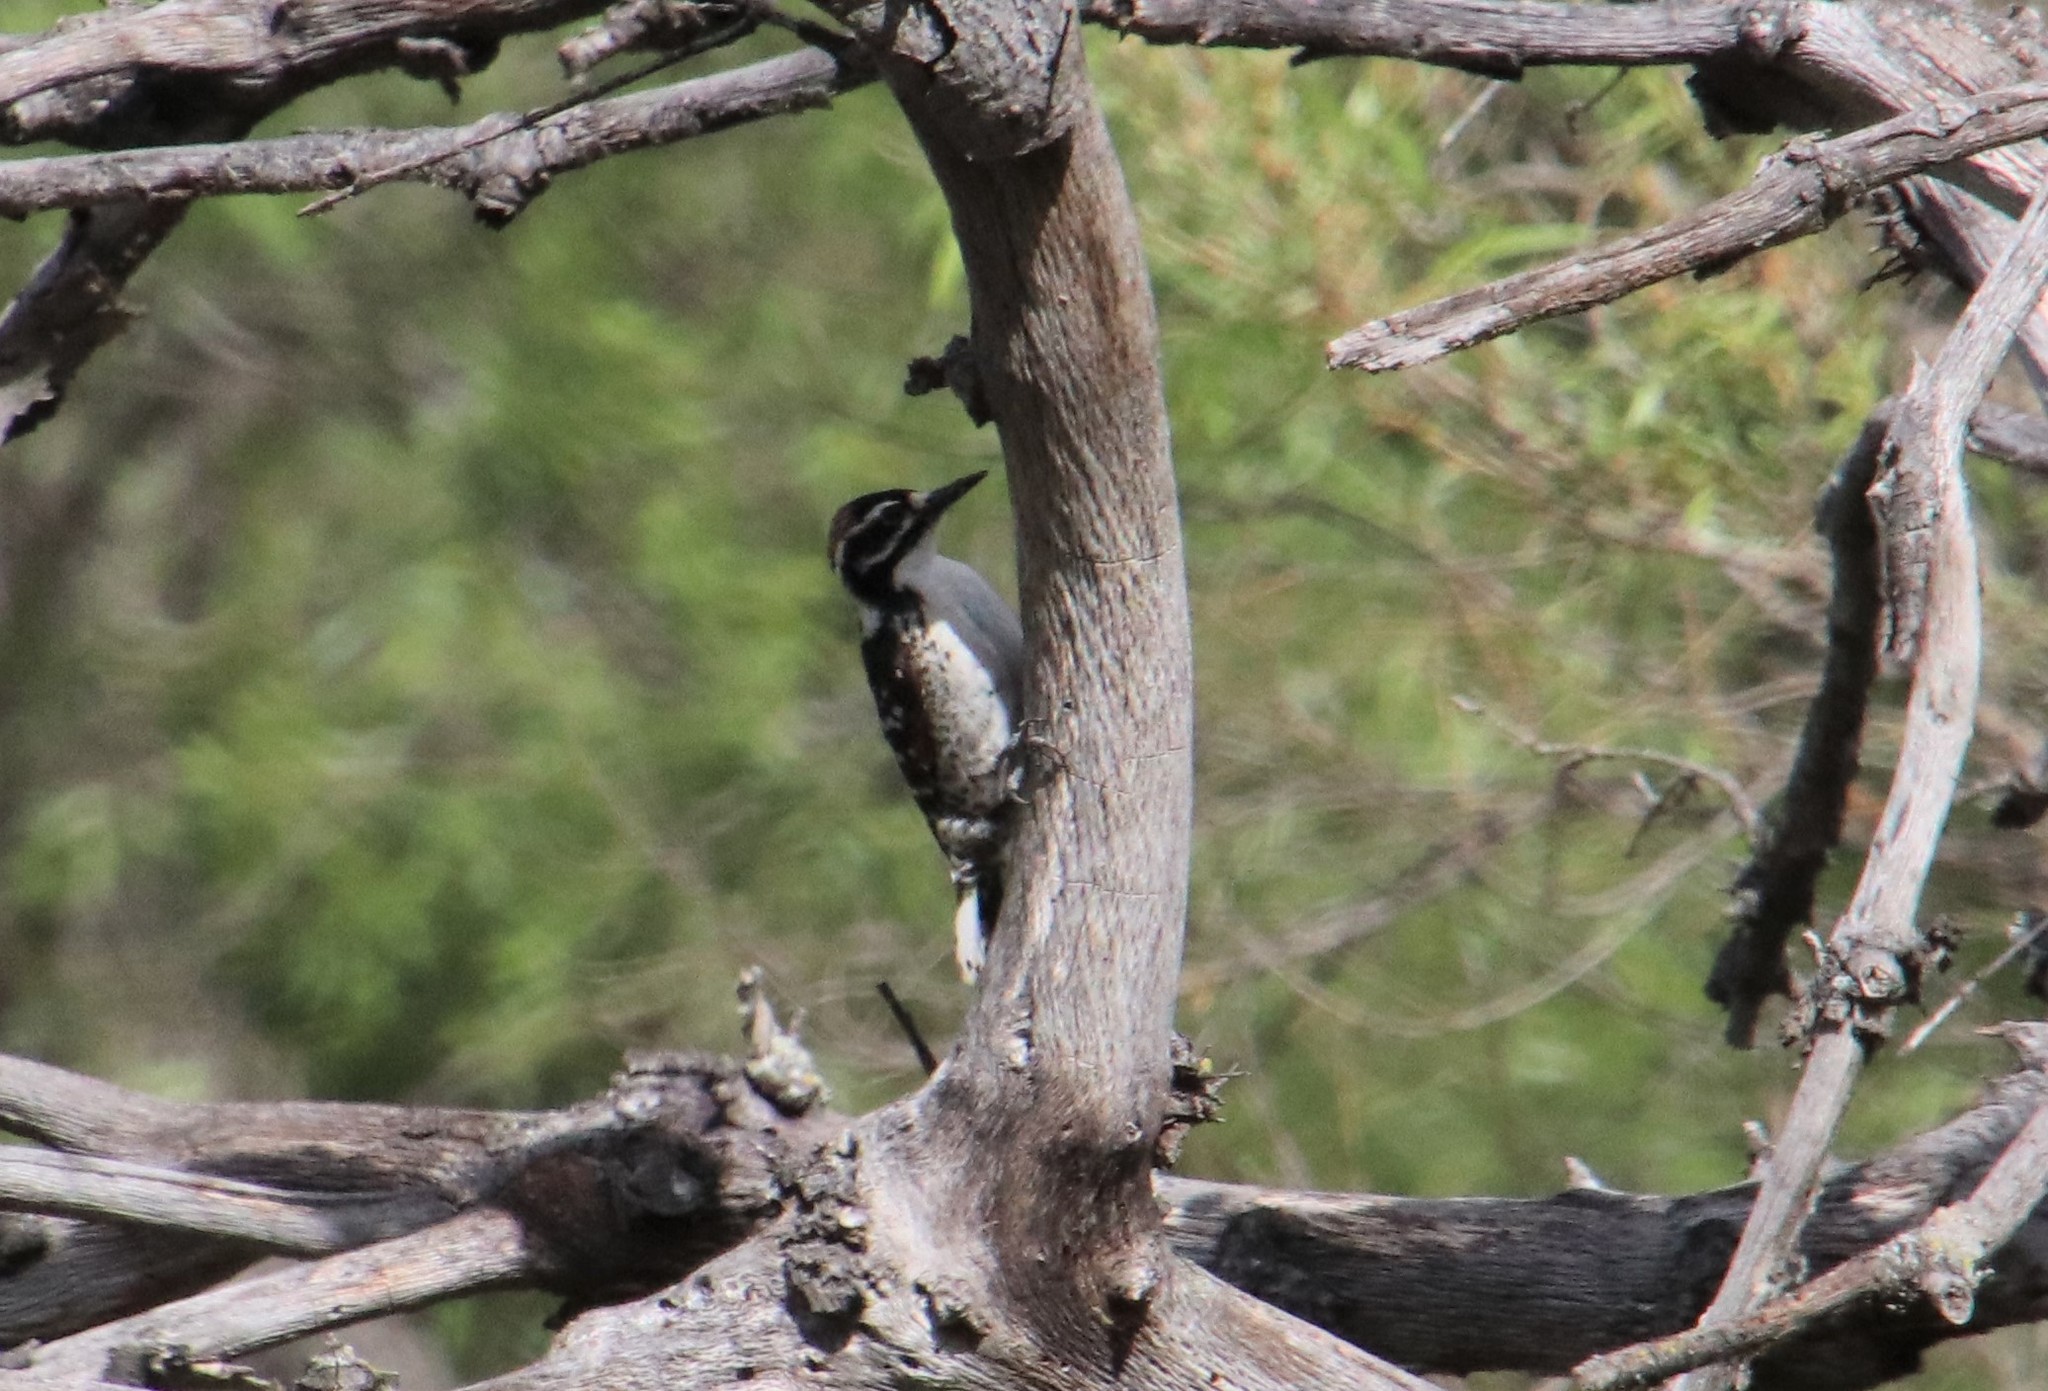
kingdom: Animalia
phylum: Chordata
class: Aves
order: Piciformes
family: Picidae
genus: Dryobates
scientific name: Dryobates nuttallii
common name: Nuttall's woodpecker
